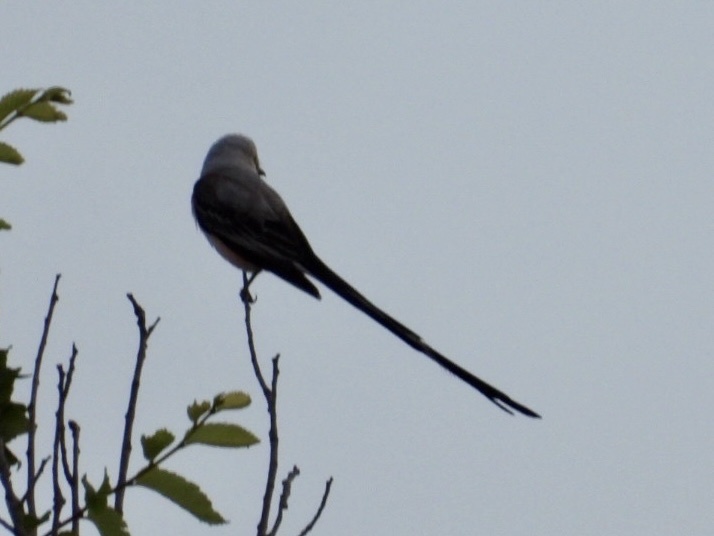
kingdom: Animalia
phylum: Chordata
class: Aves
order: Passeriformes
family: Tyrannidae
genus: Tyrannus
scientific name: Tyrannus forficatus
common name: Scissor-tailed flycatcher
